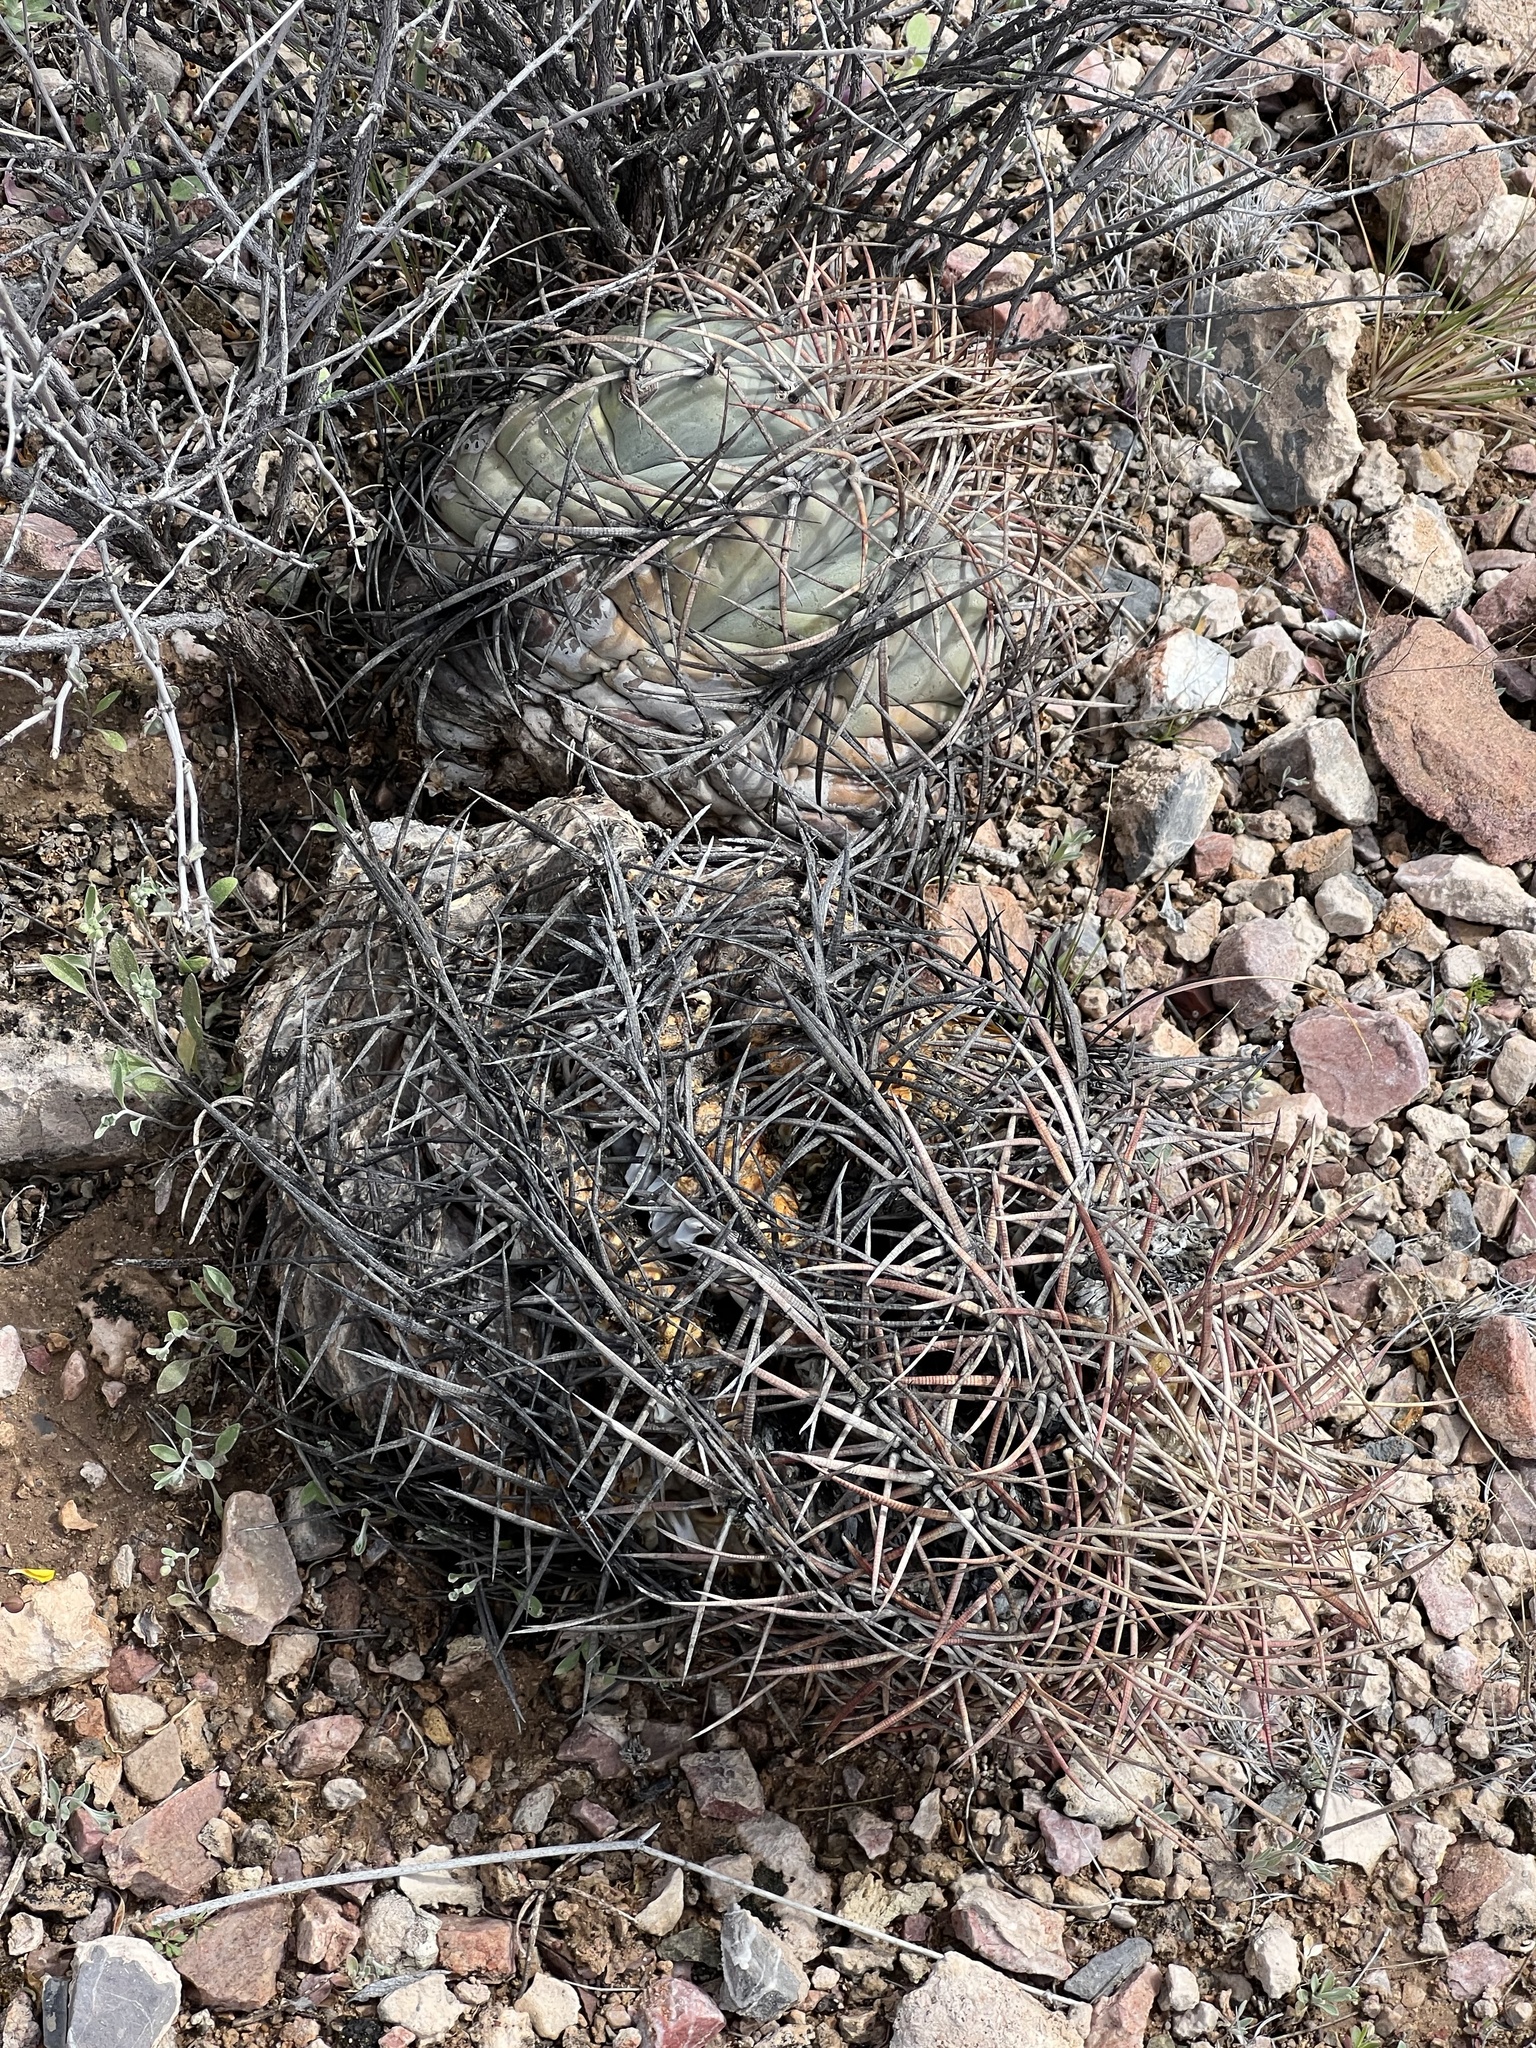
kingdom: Plantae
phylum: Tracheophyta
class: Magnoliopsida
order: Caryophyllales
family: Cactaceae
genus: Echinocactus
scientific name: Echinocactus horizonthalonius
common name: Devilshead
